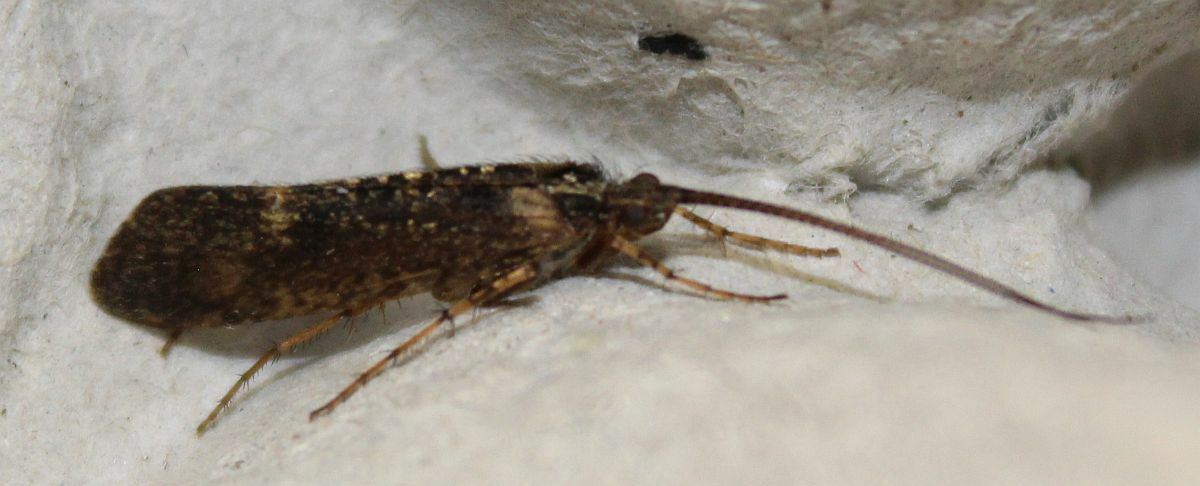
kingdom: Animalia
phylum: Arthropoda
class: Insecta
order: Trichoptera
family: Limnephilidae
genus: Limnephilus
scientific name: Limnephilus sparsus
